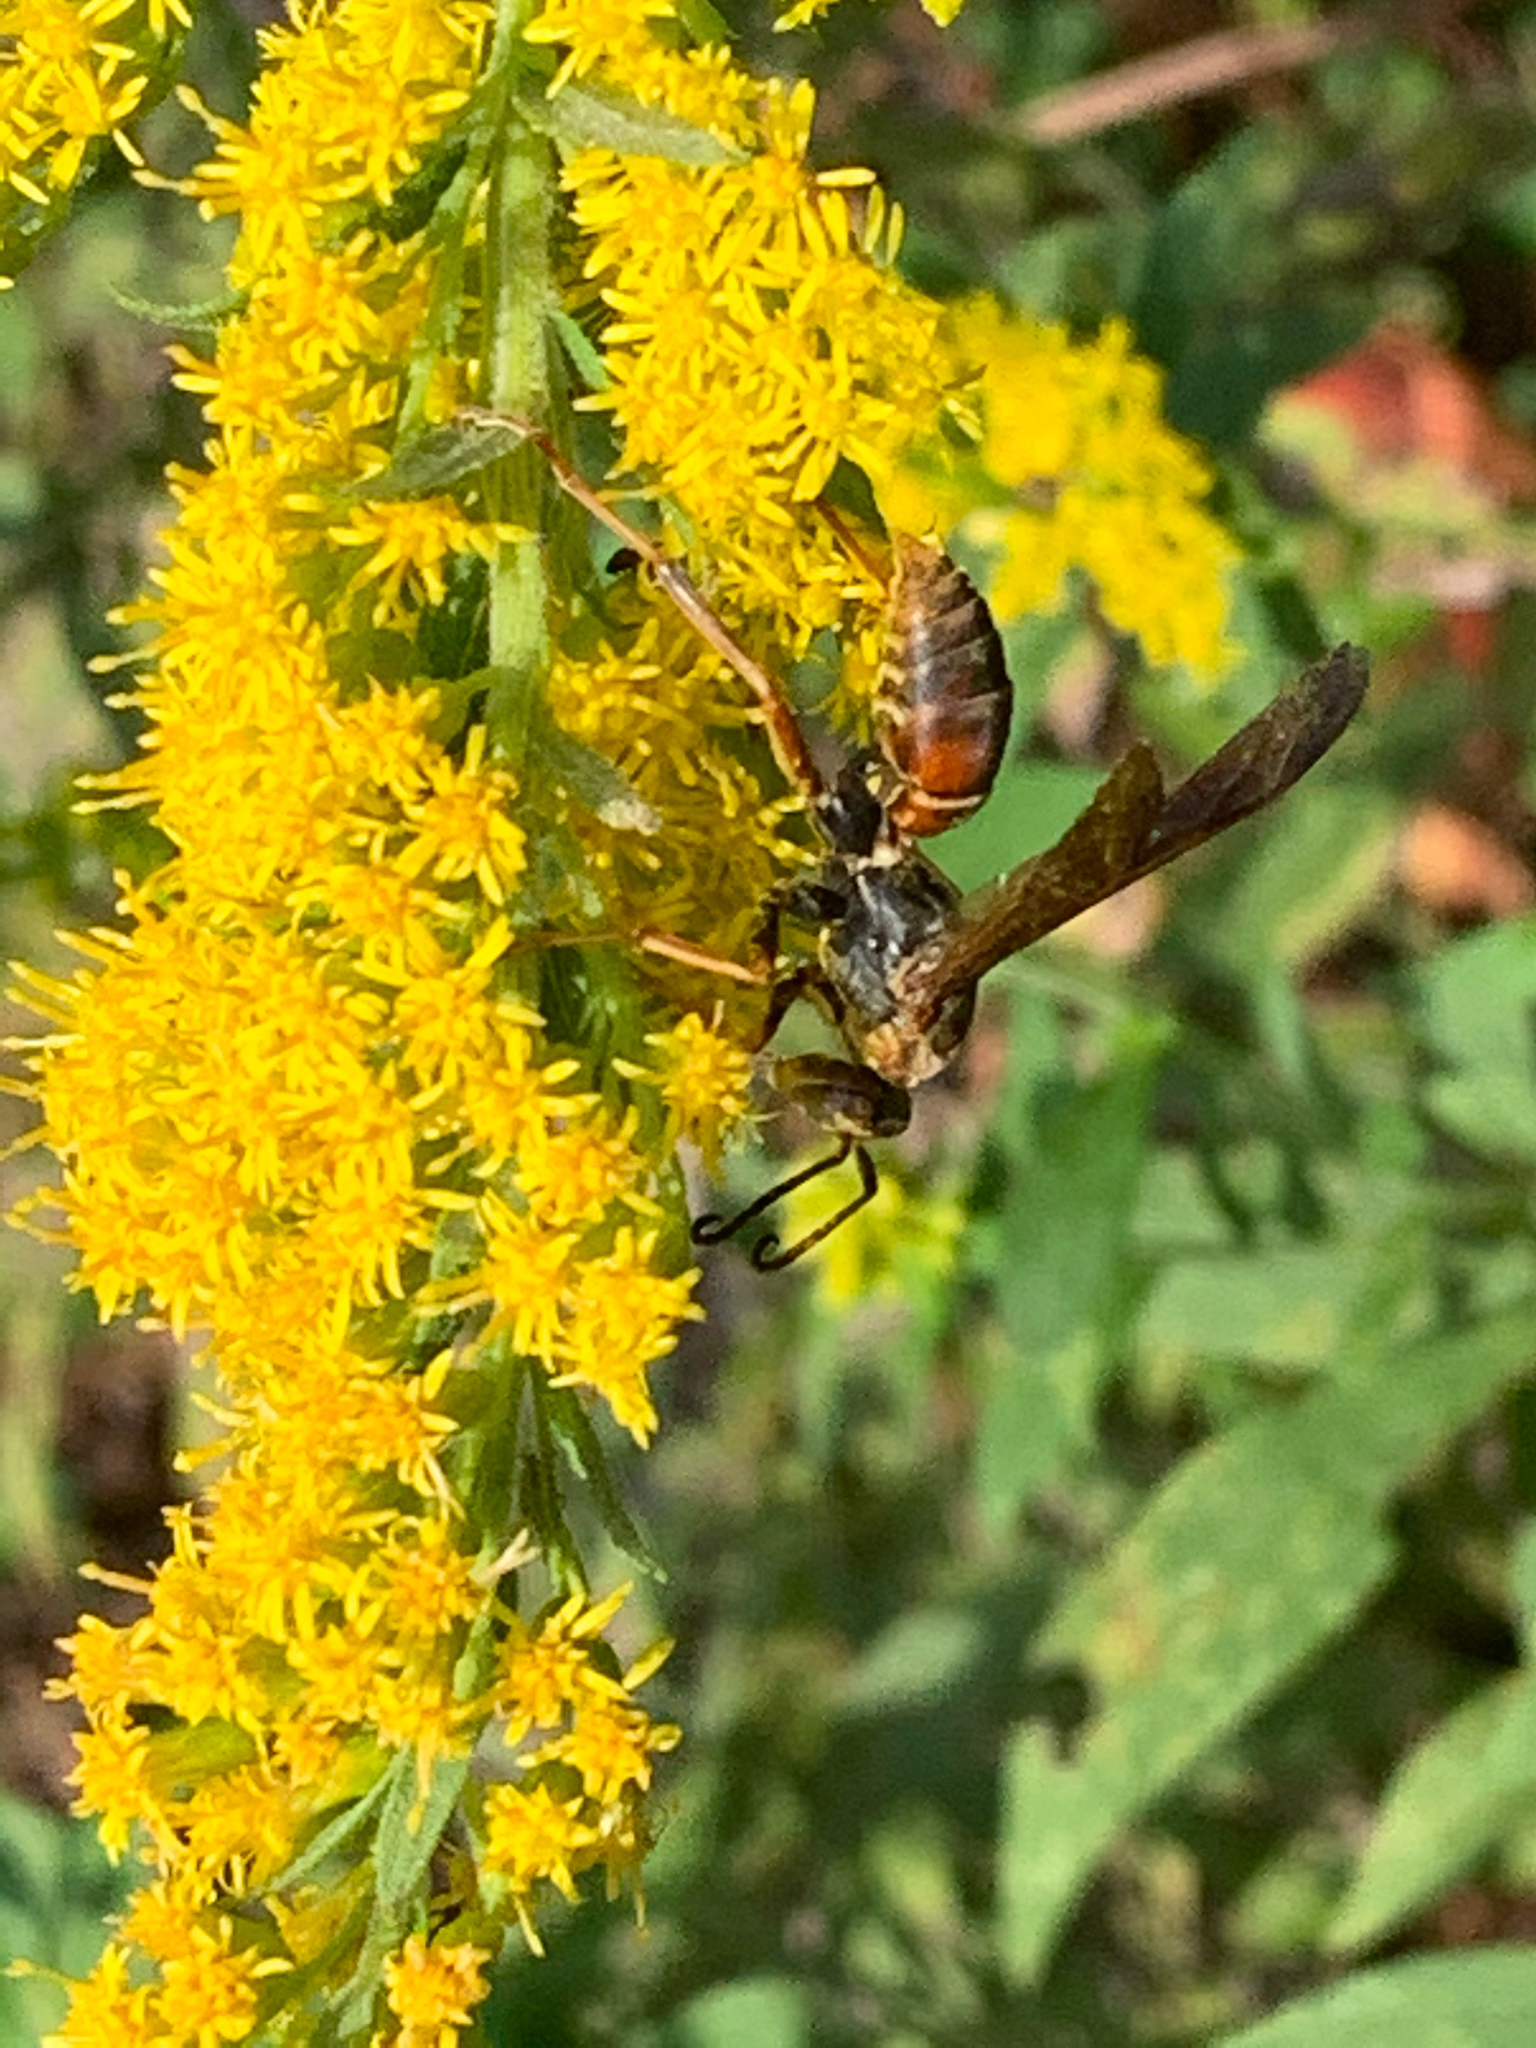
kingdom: Animalia
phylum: Arthropoda
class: Insecta
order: Hymenoptera
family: Eumenidae
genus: Polistes
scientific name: Polistes fuscatus
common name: Dark paper wasp
